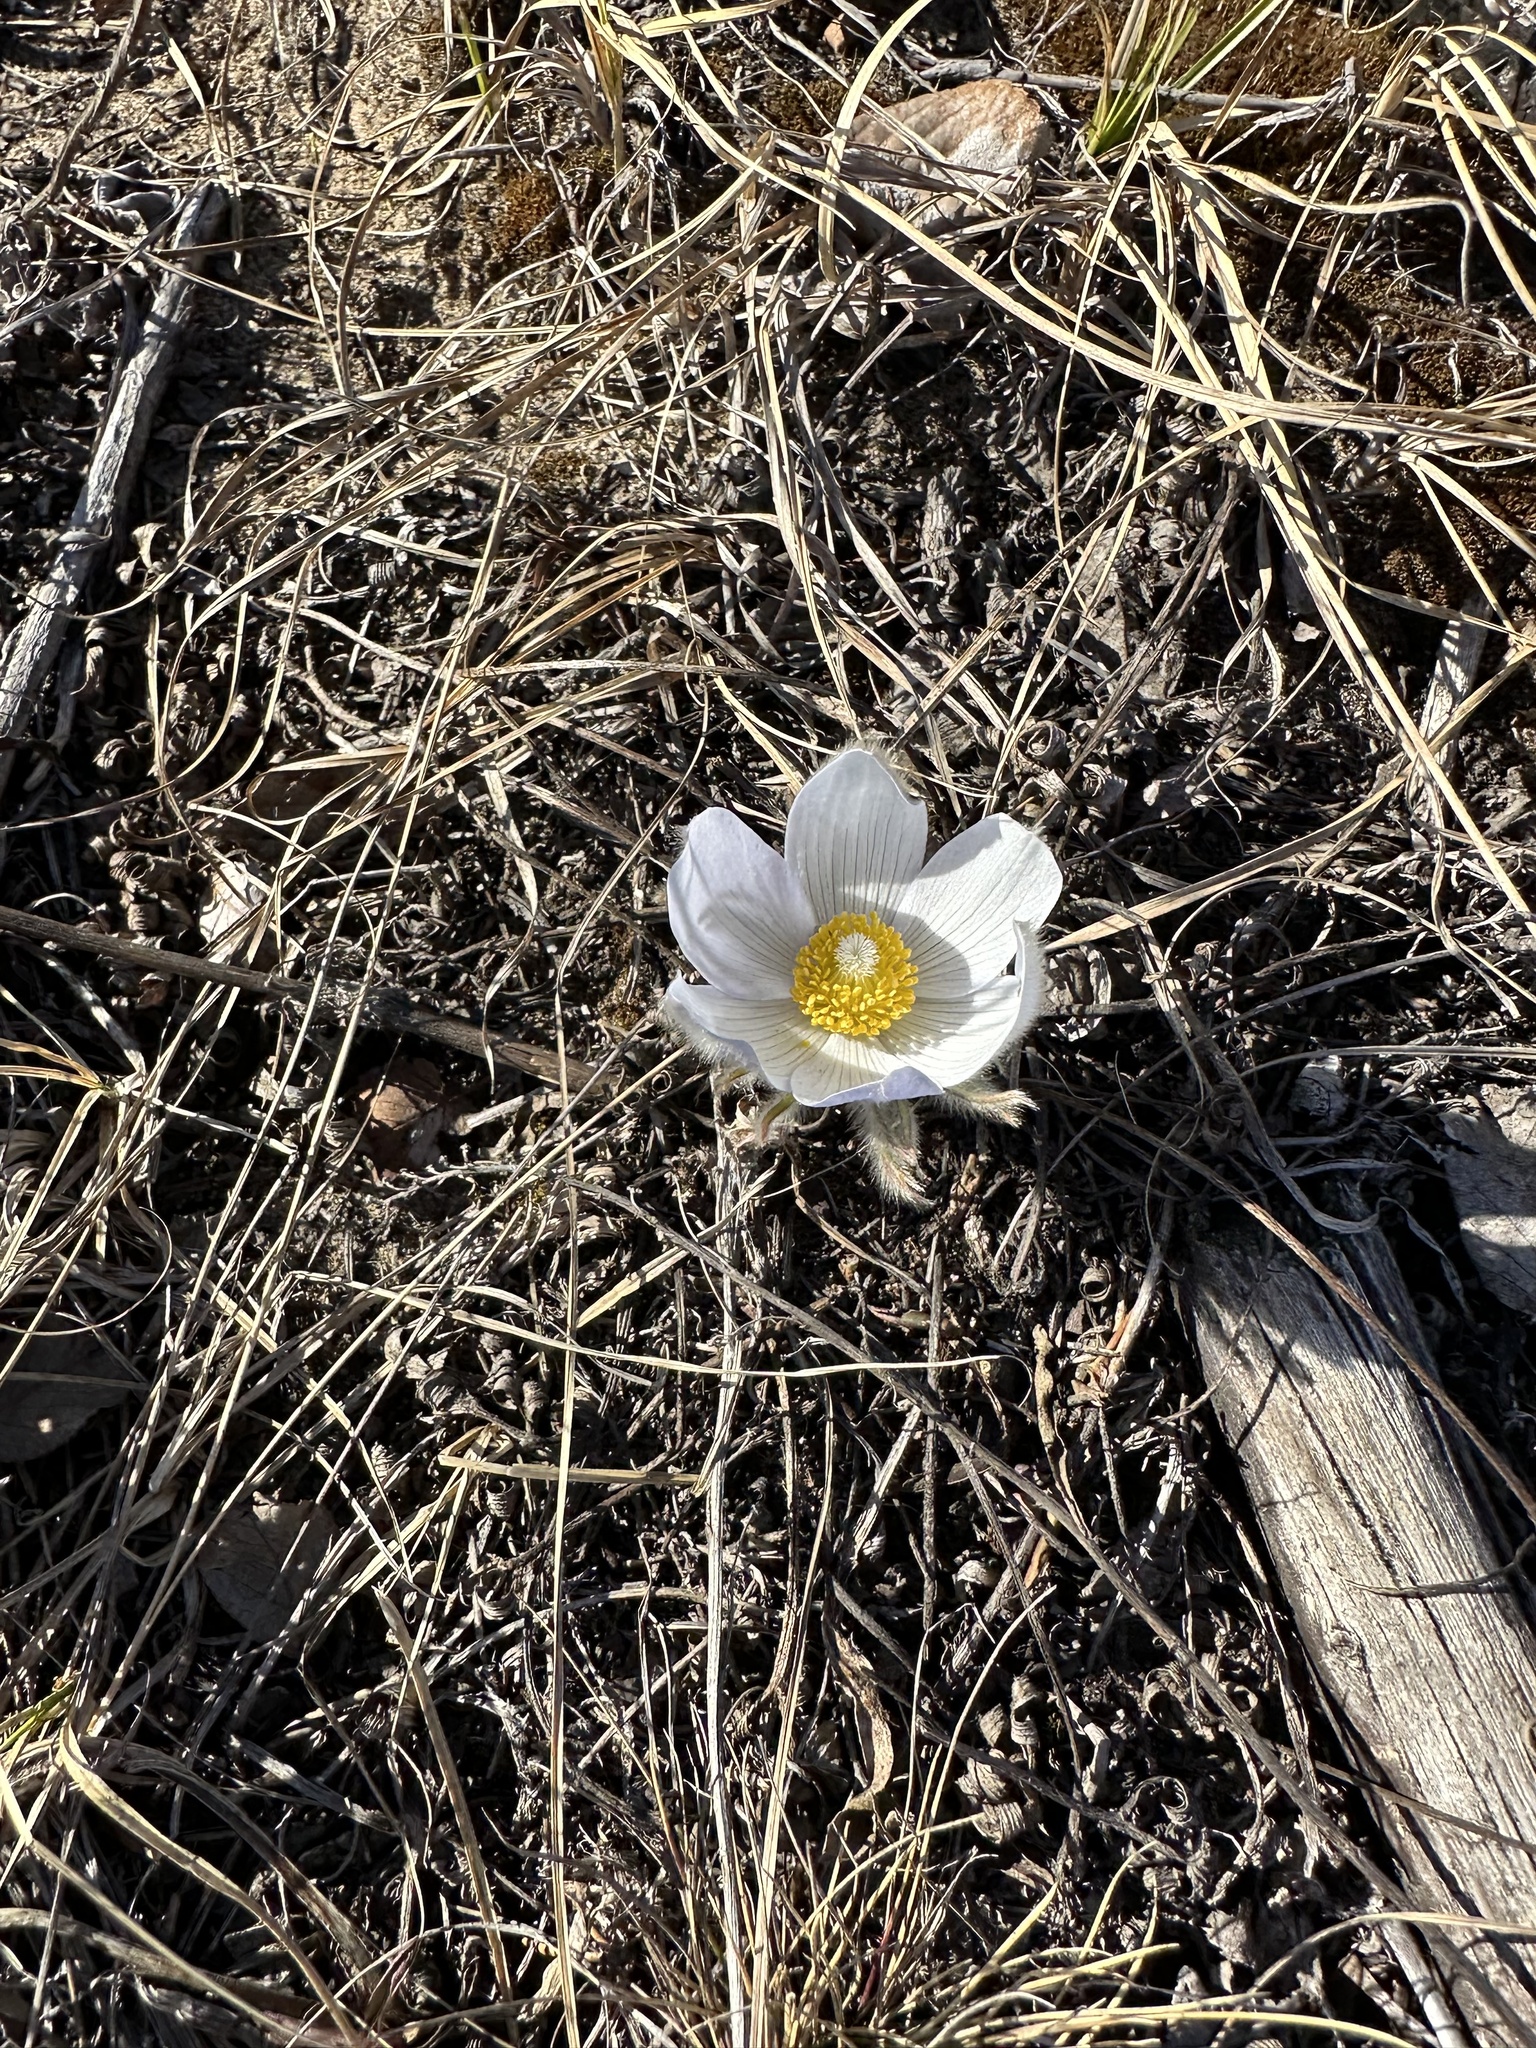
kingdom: Plantae
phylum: Tracheophyta
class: Magnoliopsida
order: Ranunculales
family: Ranunculaceae
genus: Pulsatilla
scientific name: Pulsatilla nuttalliana
